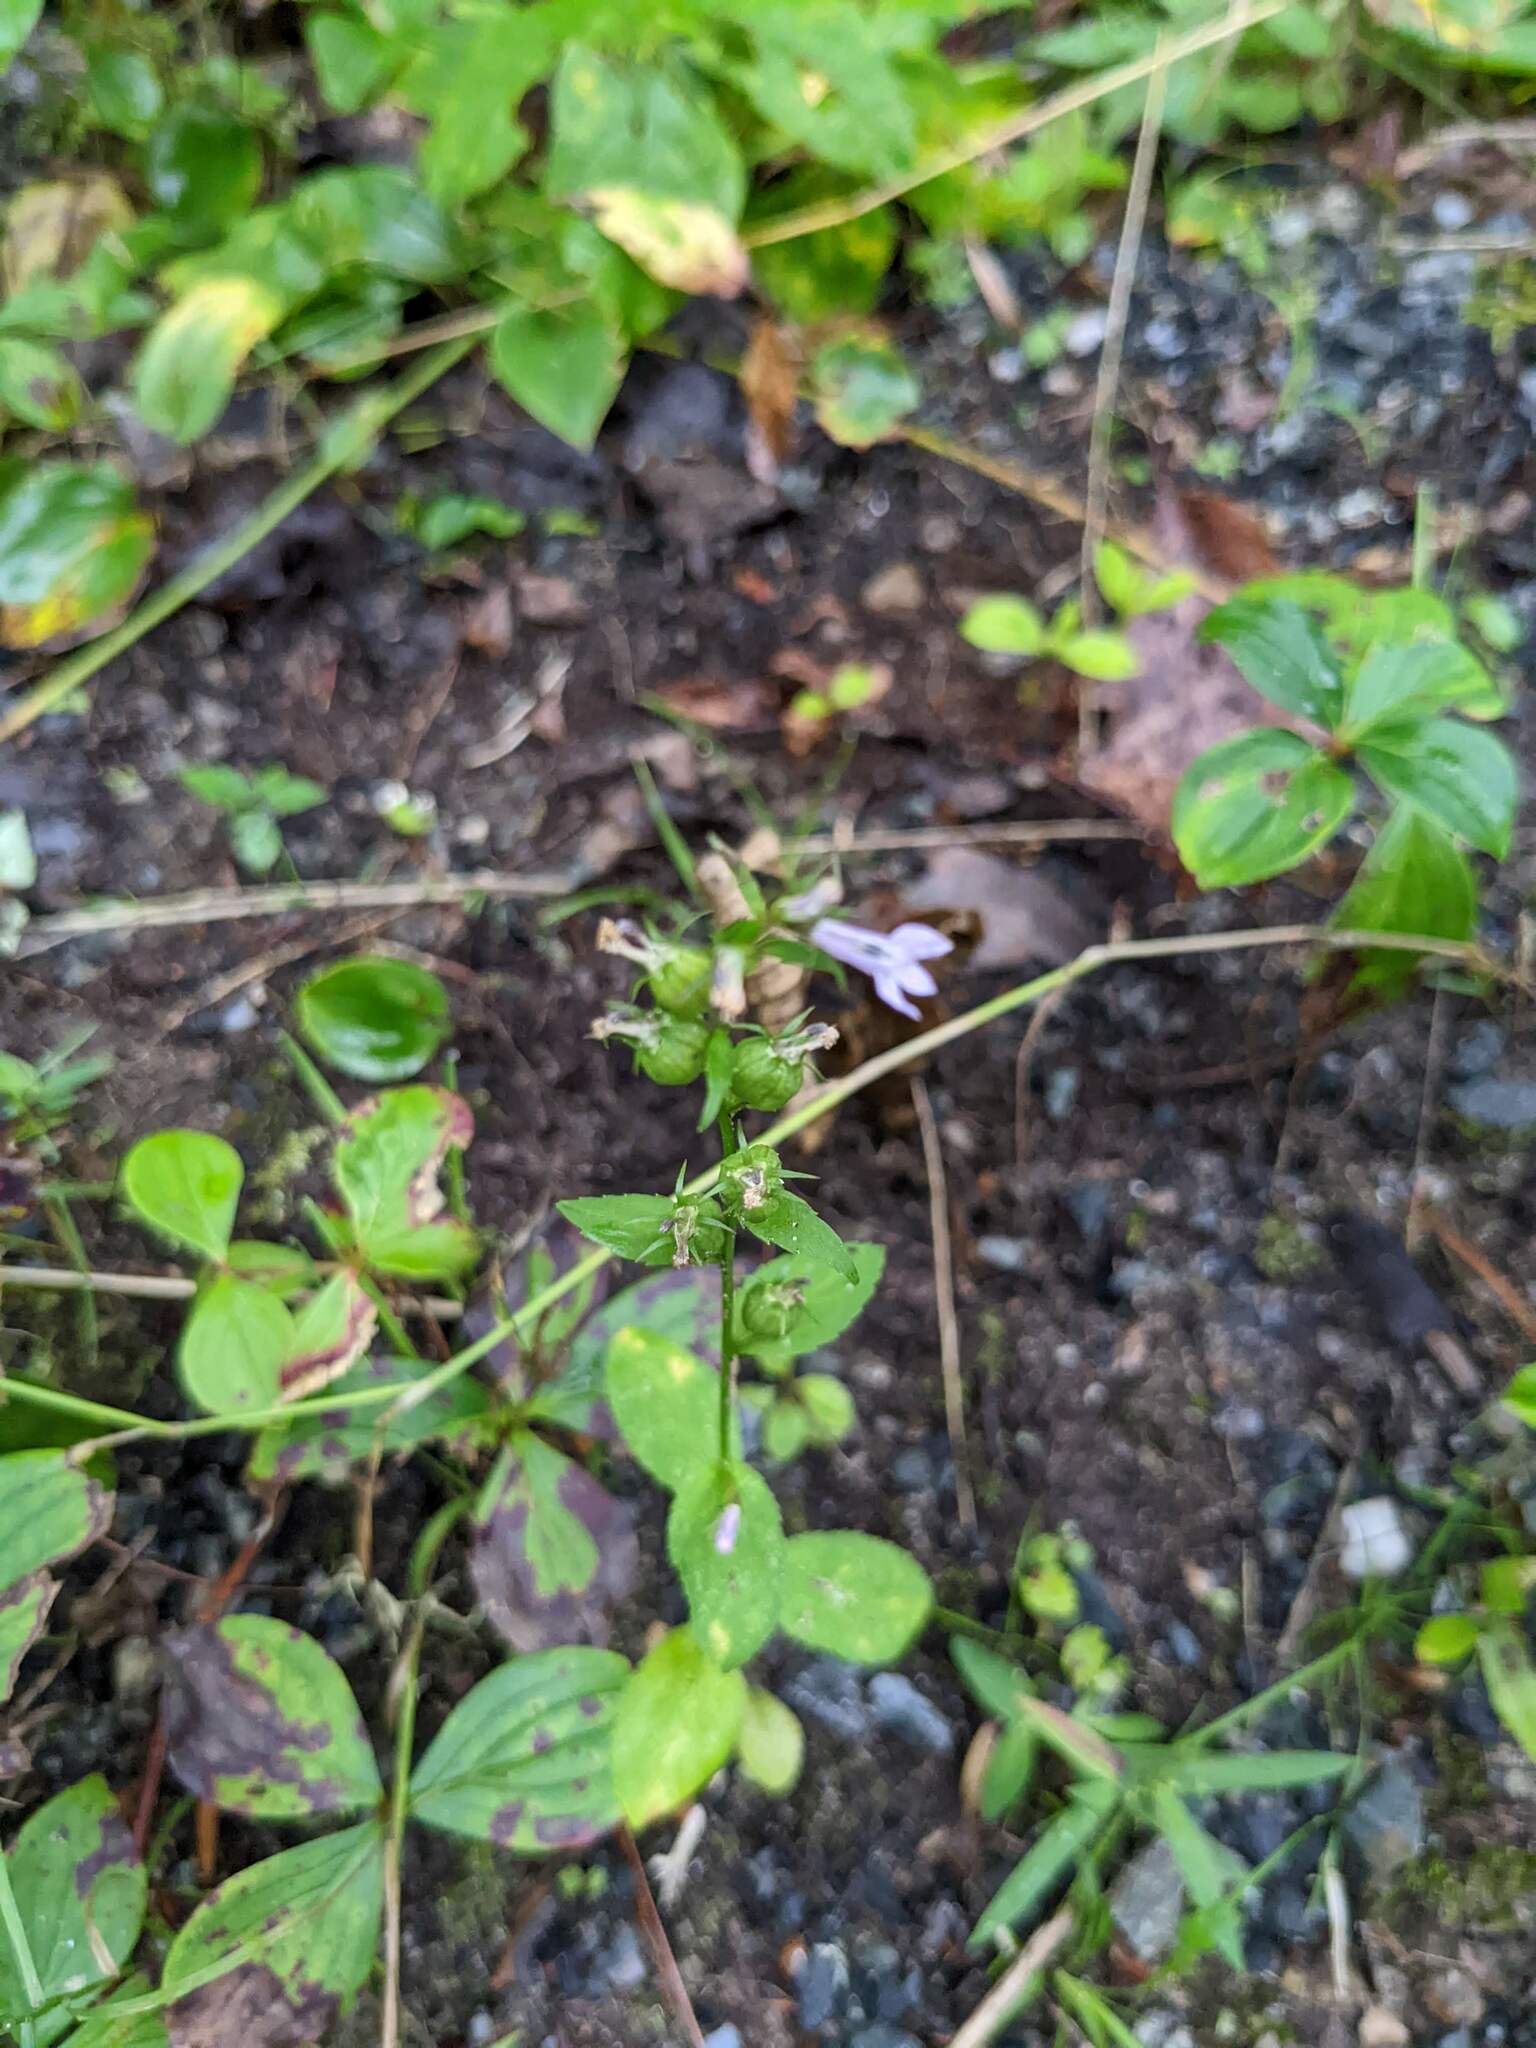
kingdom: Plantae
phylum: Tracheophyta
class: Magnoliopsida
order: Asterales
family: Campanulaceae
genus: Lobelia
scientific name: Lobelia inflata
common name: Indian tobacco
